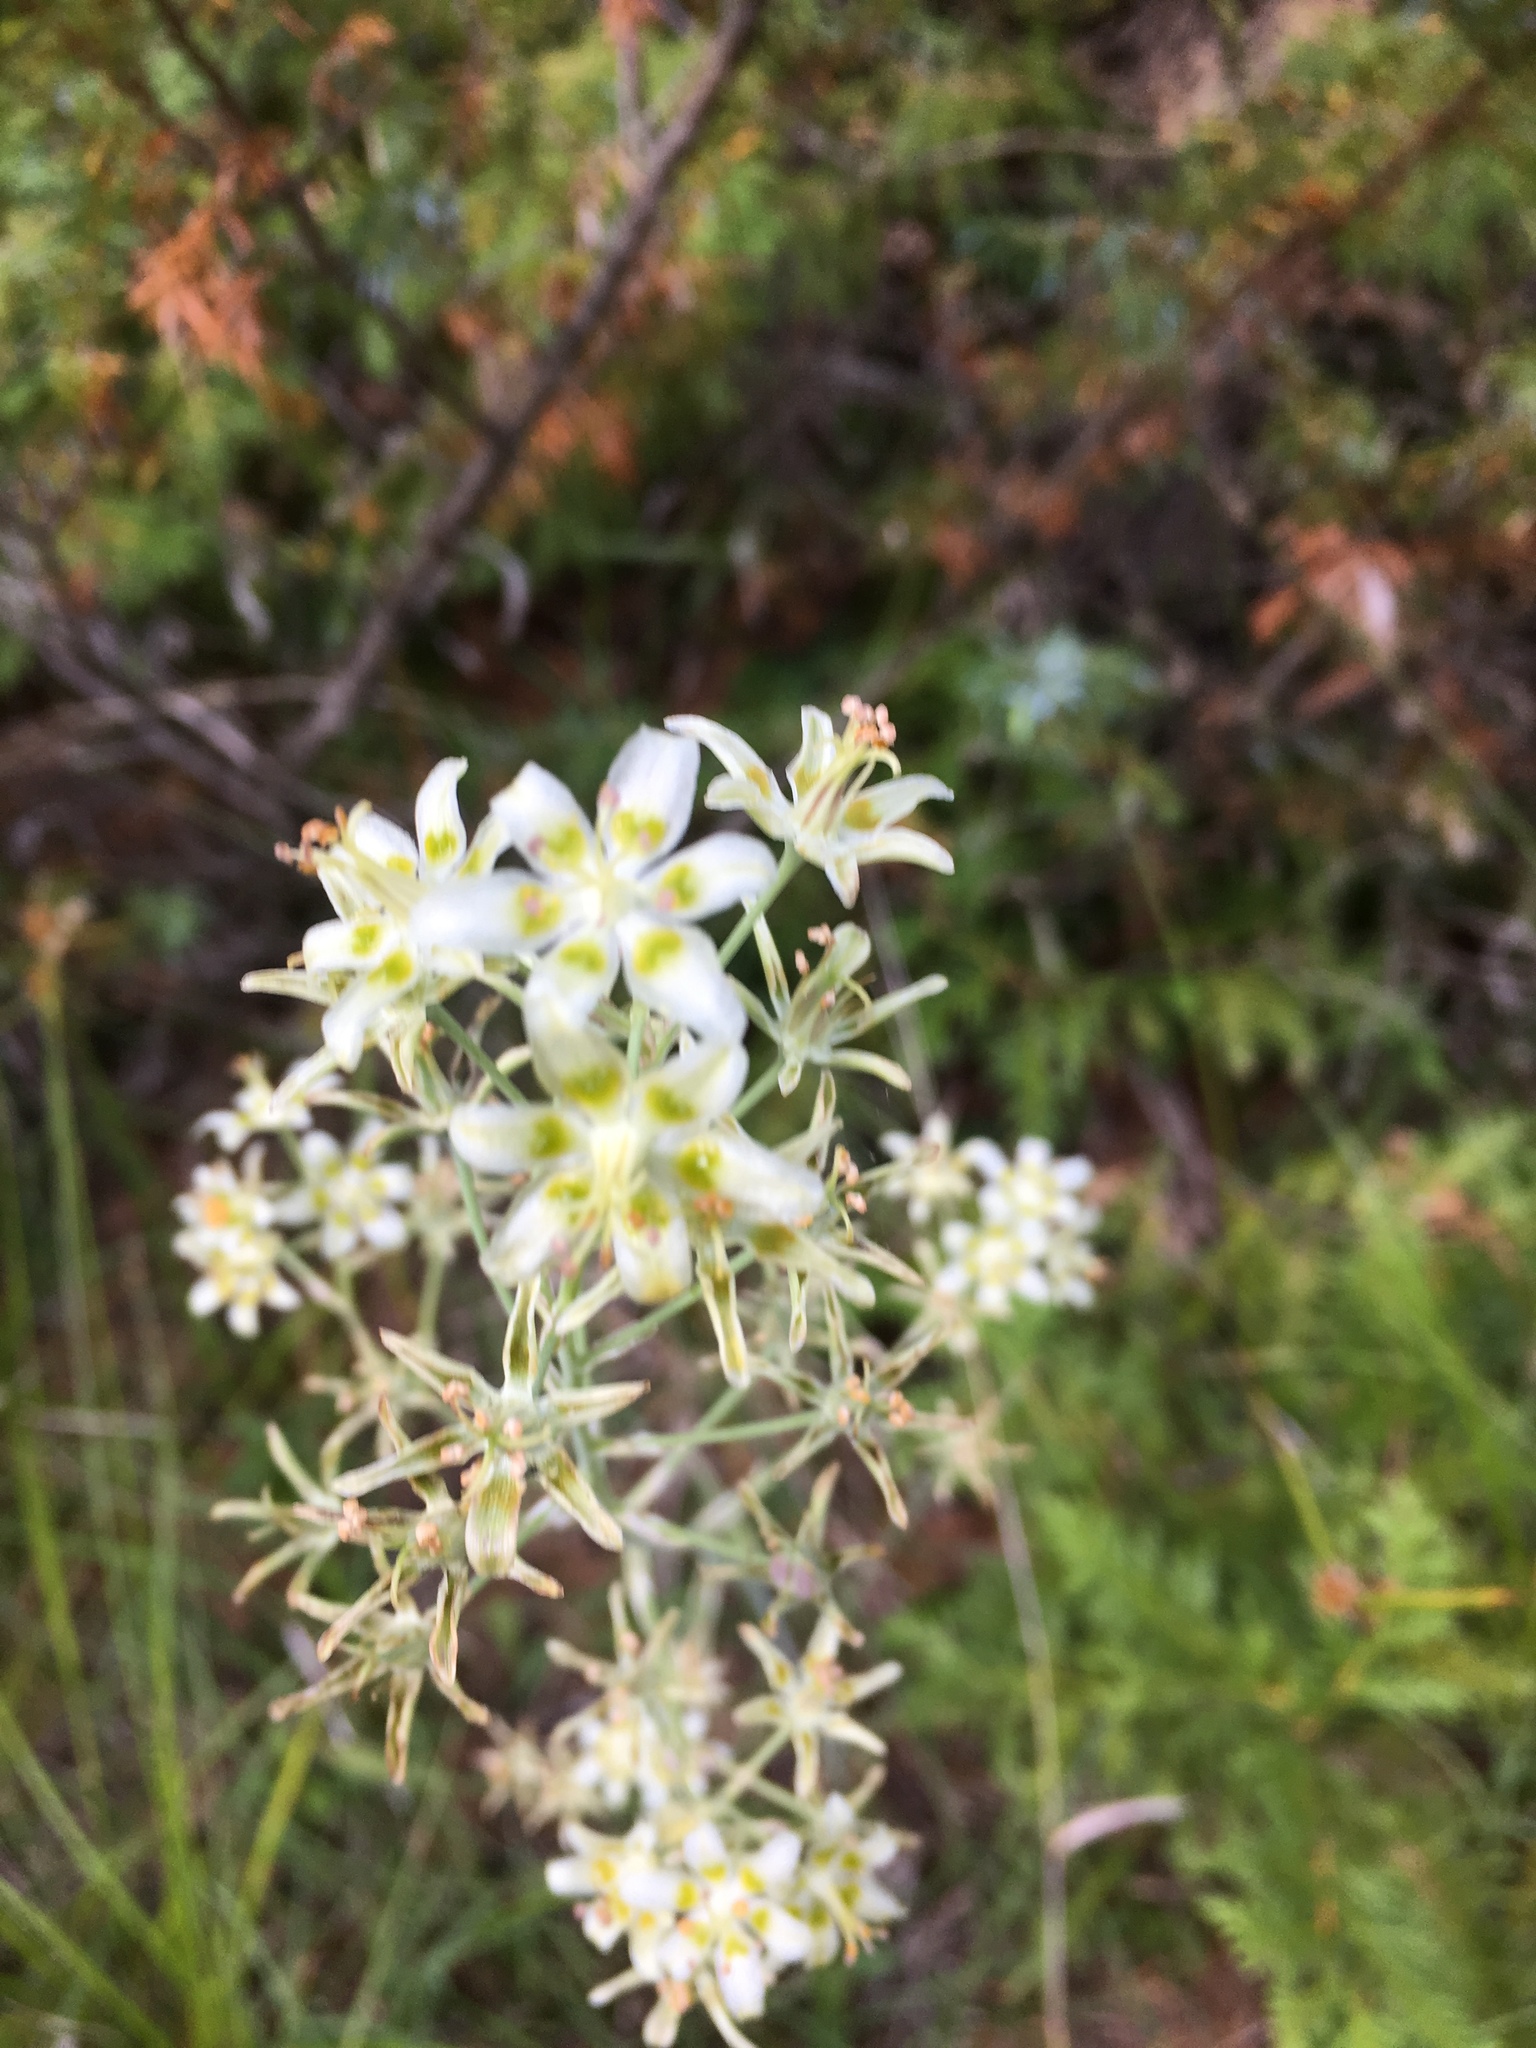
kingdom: Plantae
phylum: Tracheophyta
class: Liliopsida
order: Liliales
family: Melanthiaceae
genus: Anticlea
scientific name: Anticlea elegans
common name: Mountain death camas
